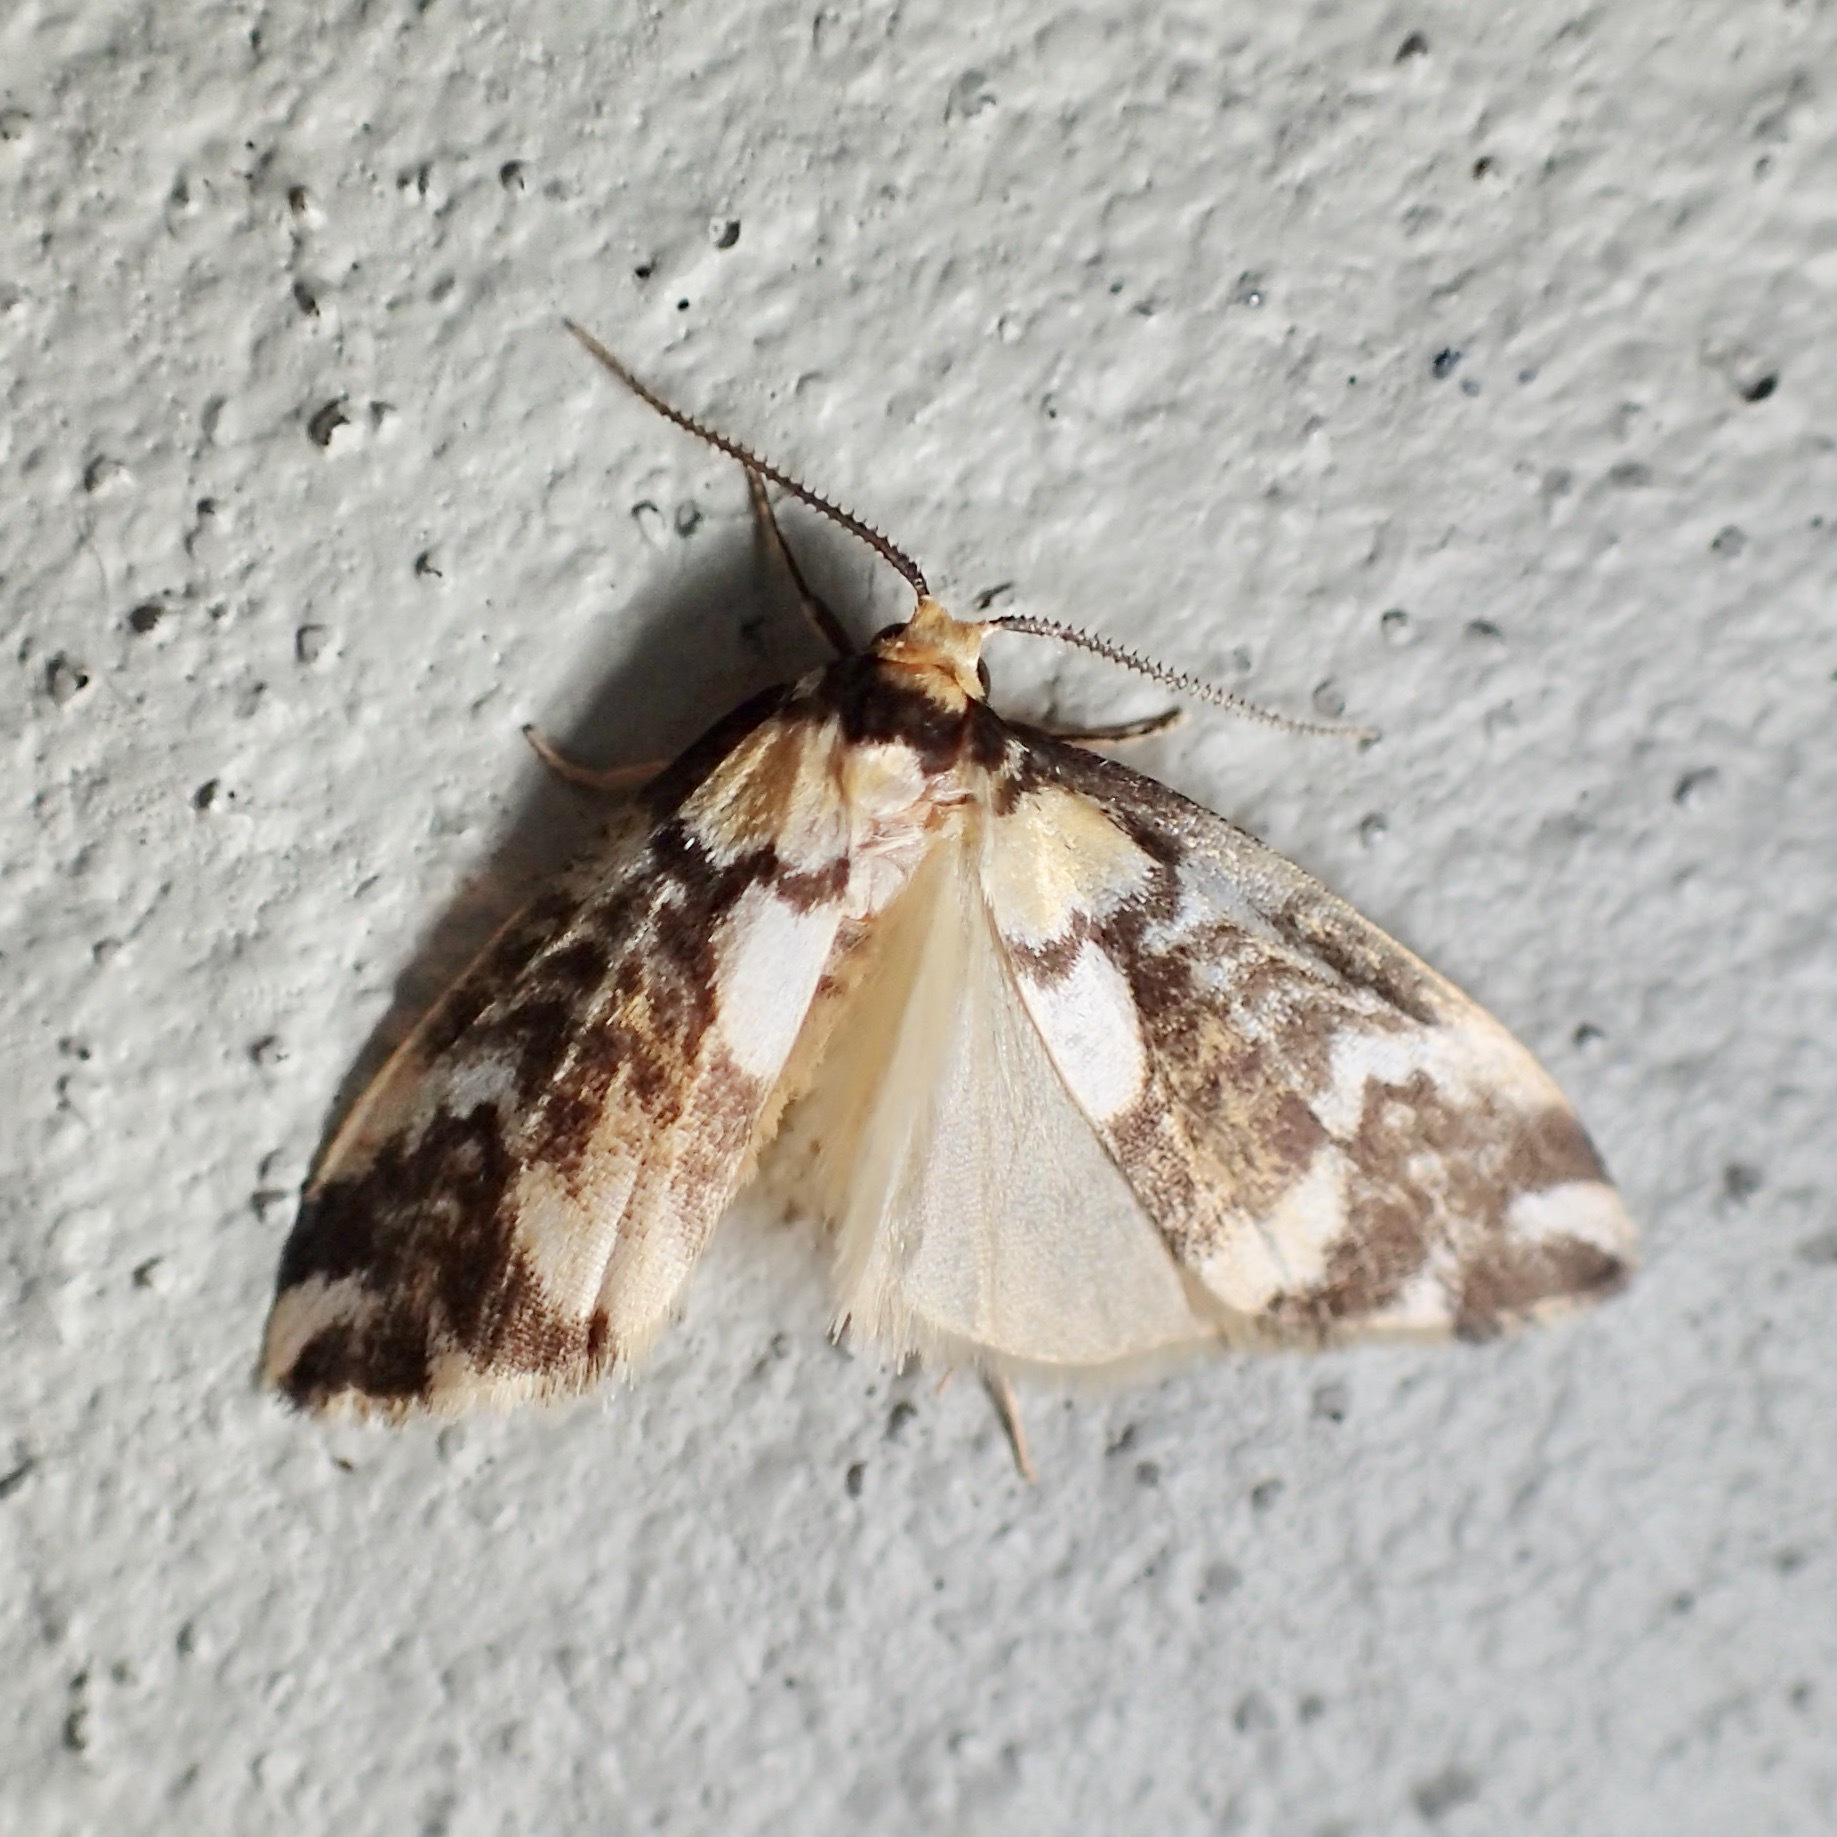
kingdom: Animalia
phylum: Arthropoda
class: Insecta
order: Lepidoptera
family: Erebidae
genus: Thallarcha
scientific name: Thallarcha erotis
